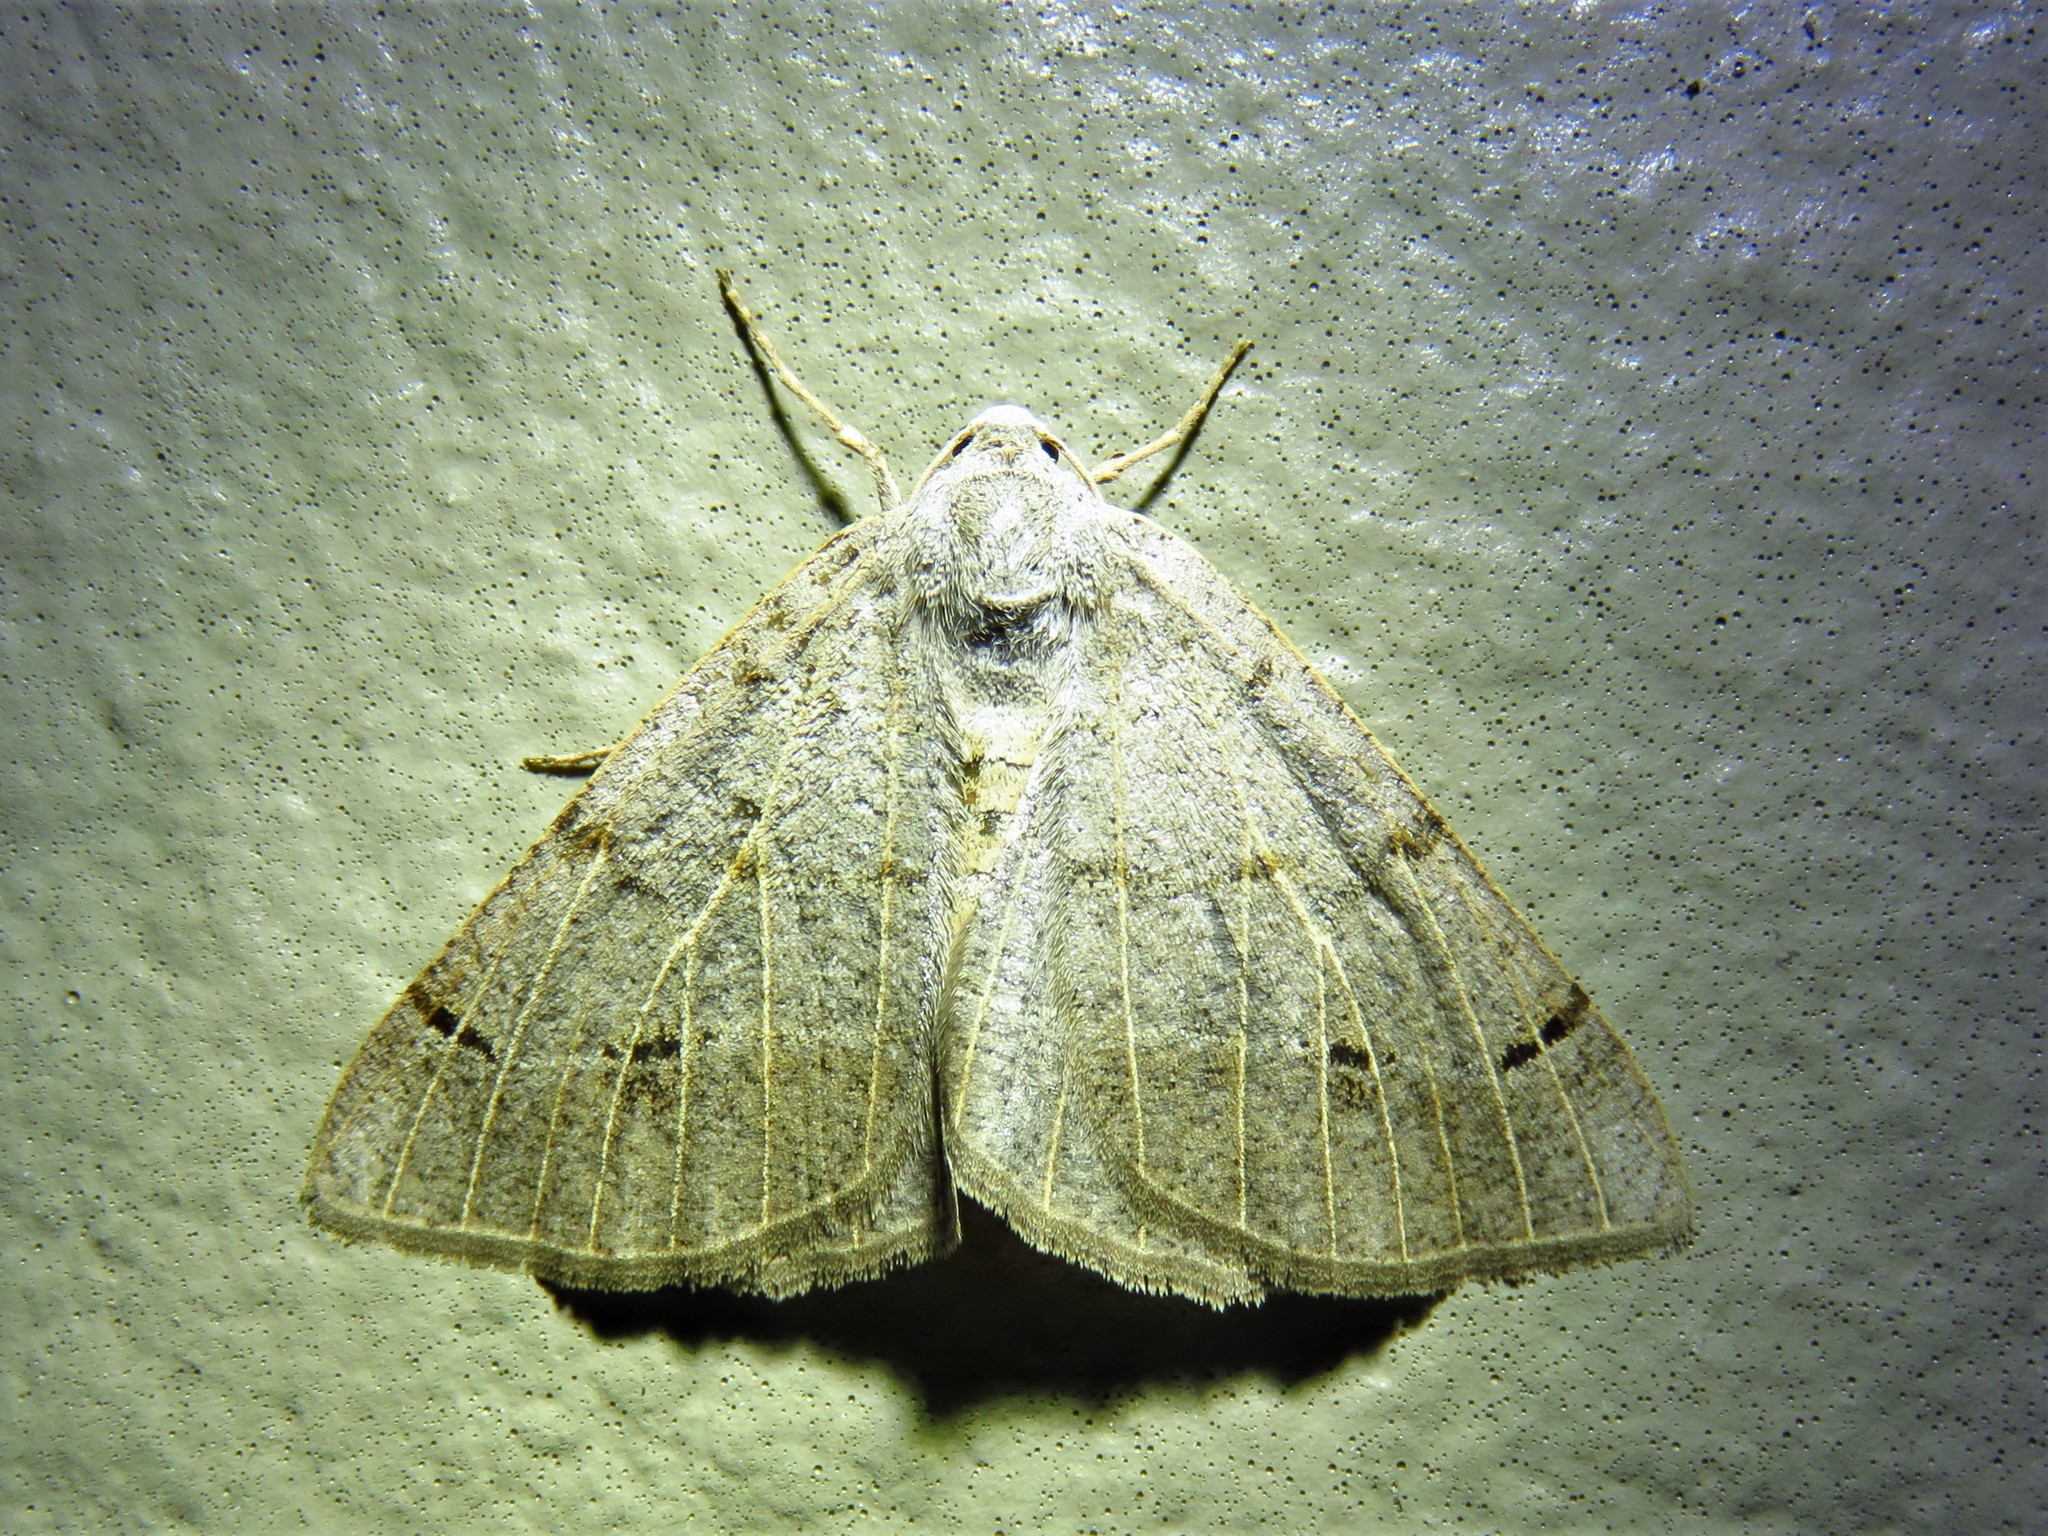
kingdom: Animalia
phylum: Arthropoda
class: Insecta
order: Lepidoptera
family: Geometridae
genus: Isturgia
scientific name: Isturgia dislocaria
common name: Pale-viened enconista
